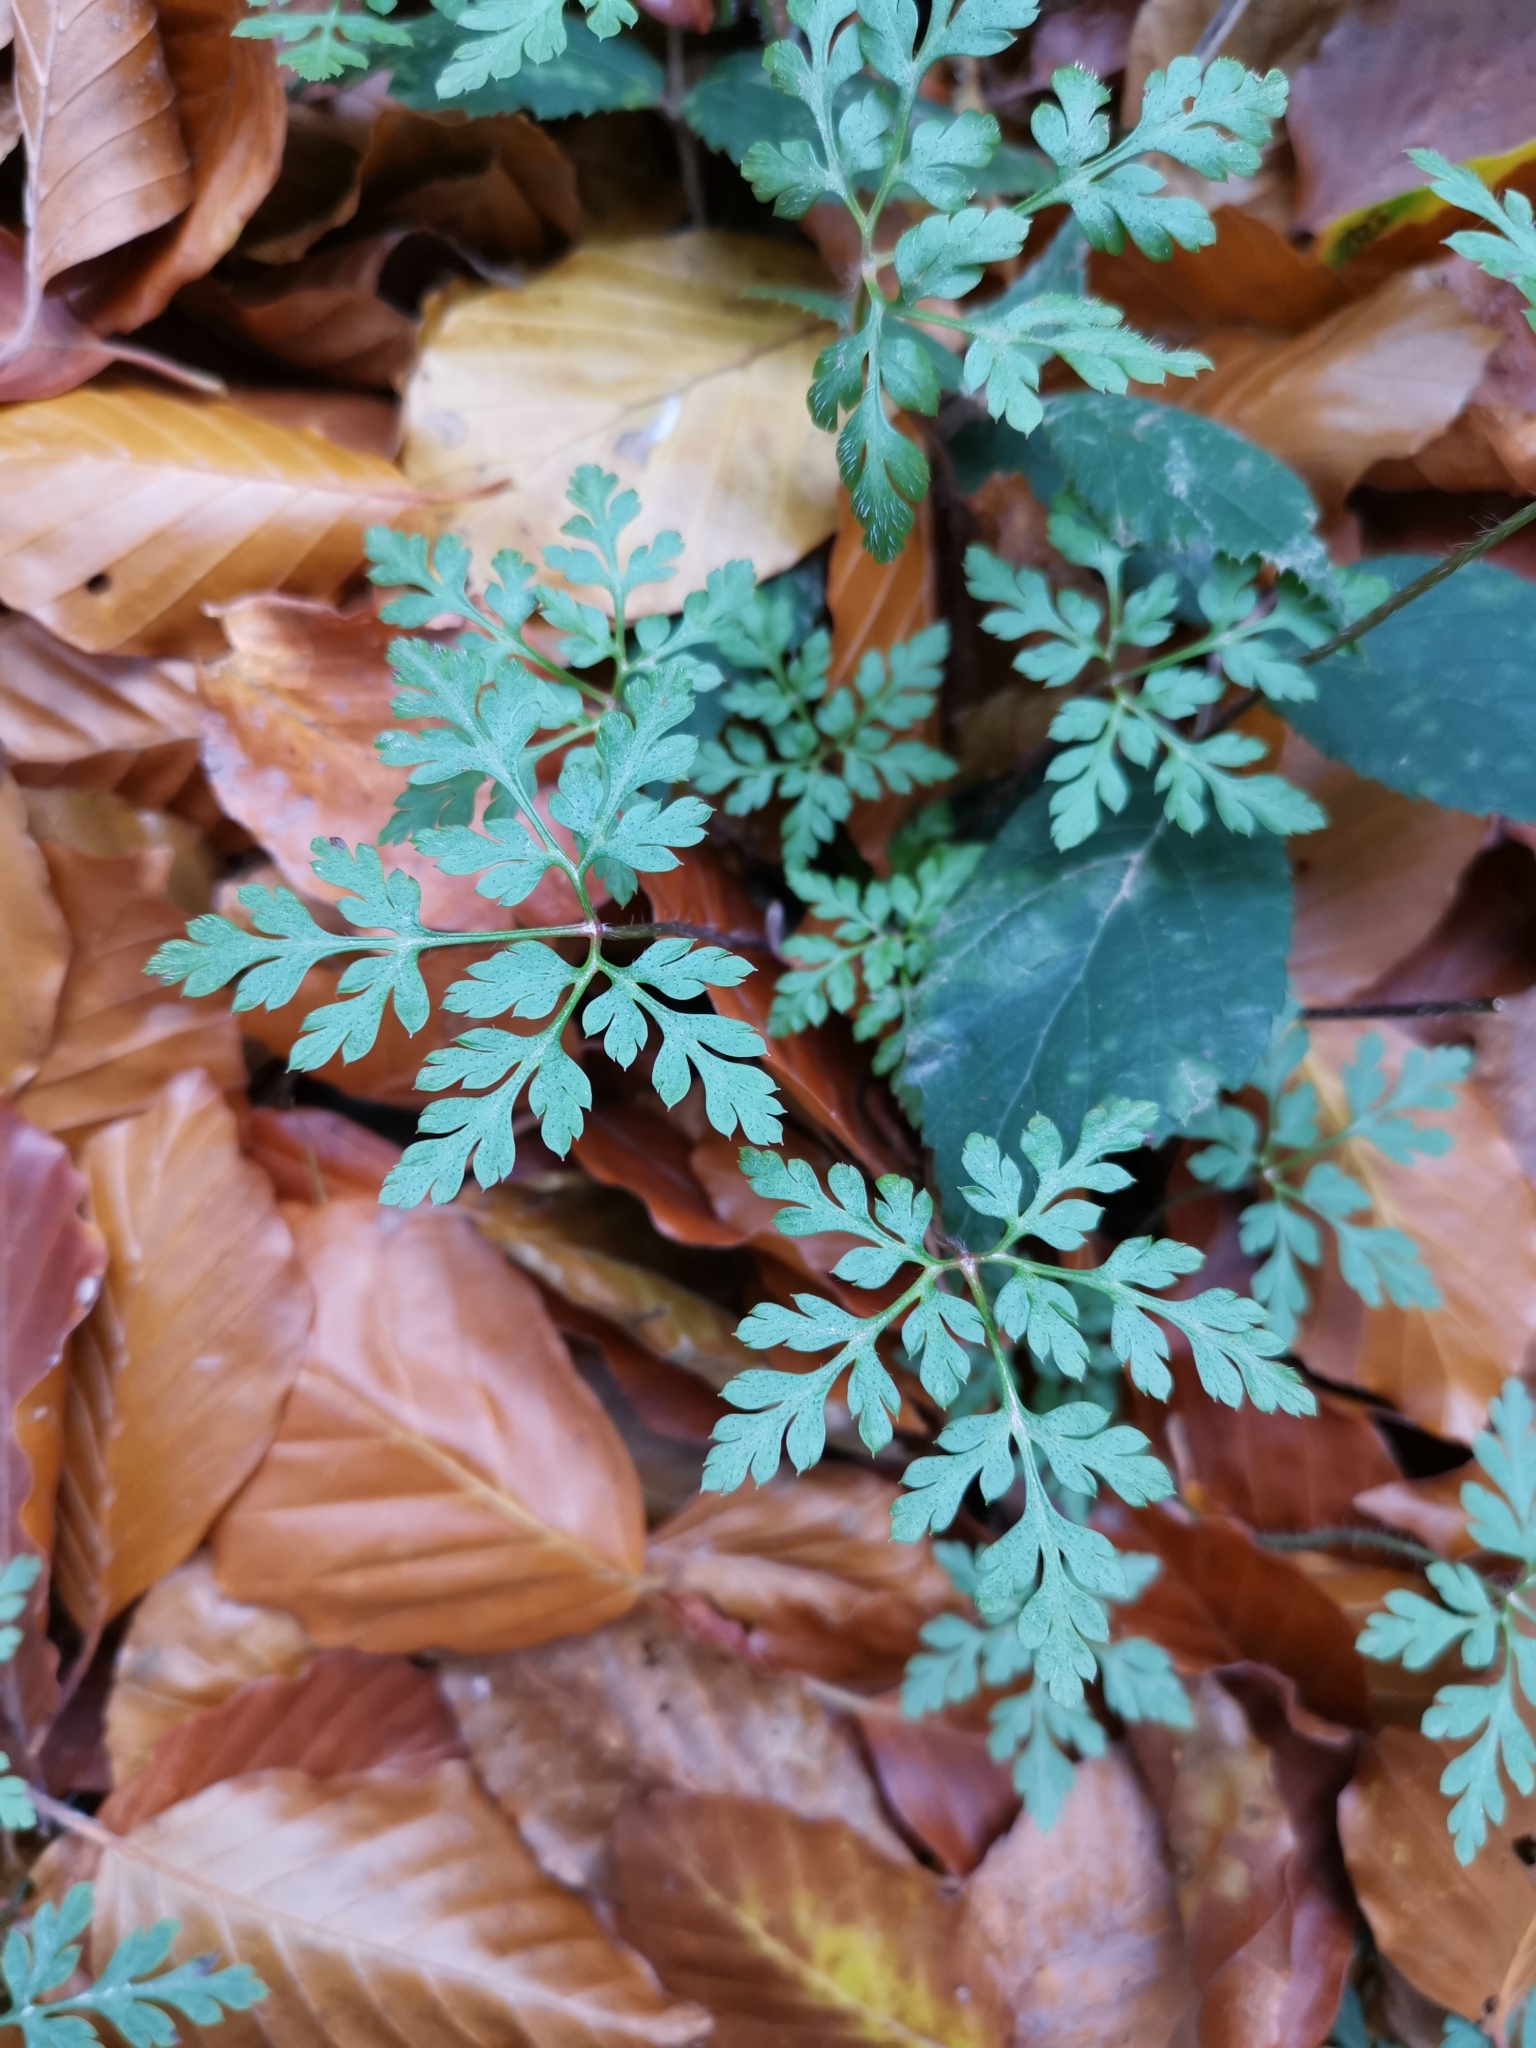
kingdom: Plantae
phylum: Tracheophyta
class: Magnoliopsida
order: Geraniales
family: Geraniaceae
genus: Geranium
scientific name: Geranium robertianum
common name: Herb-robert
